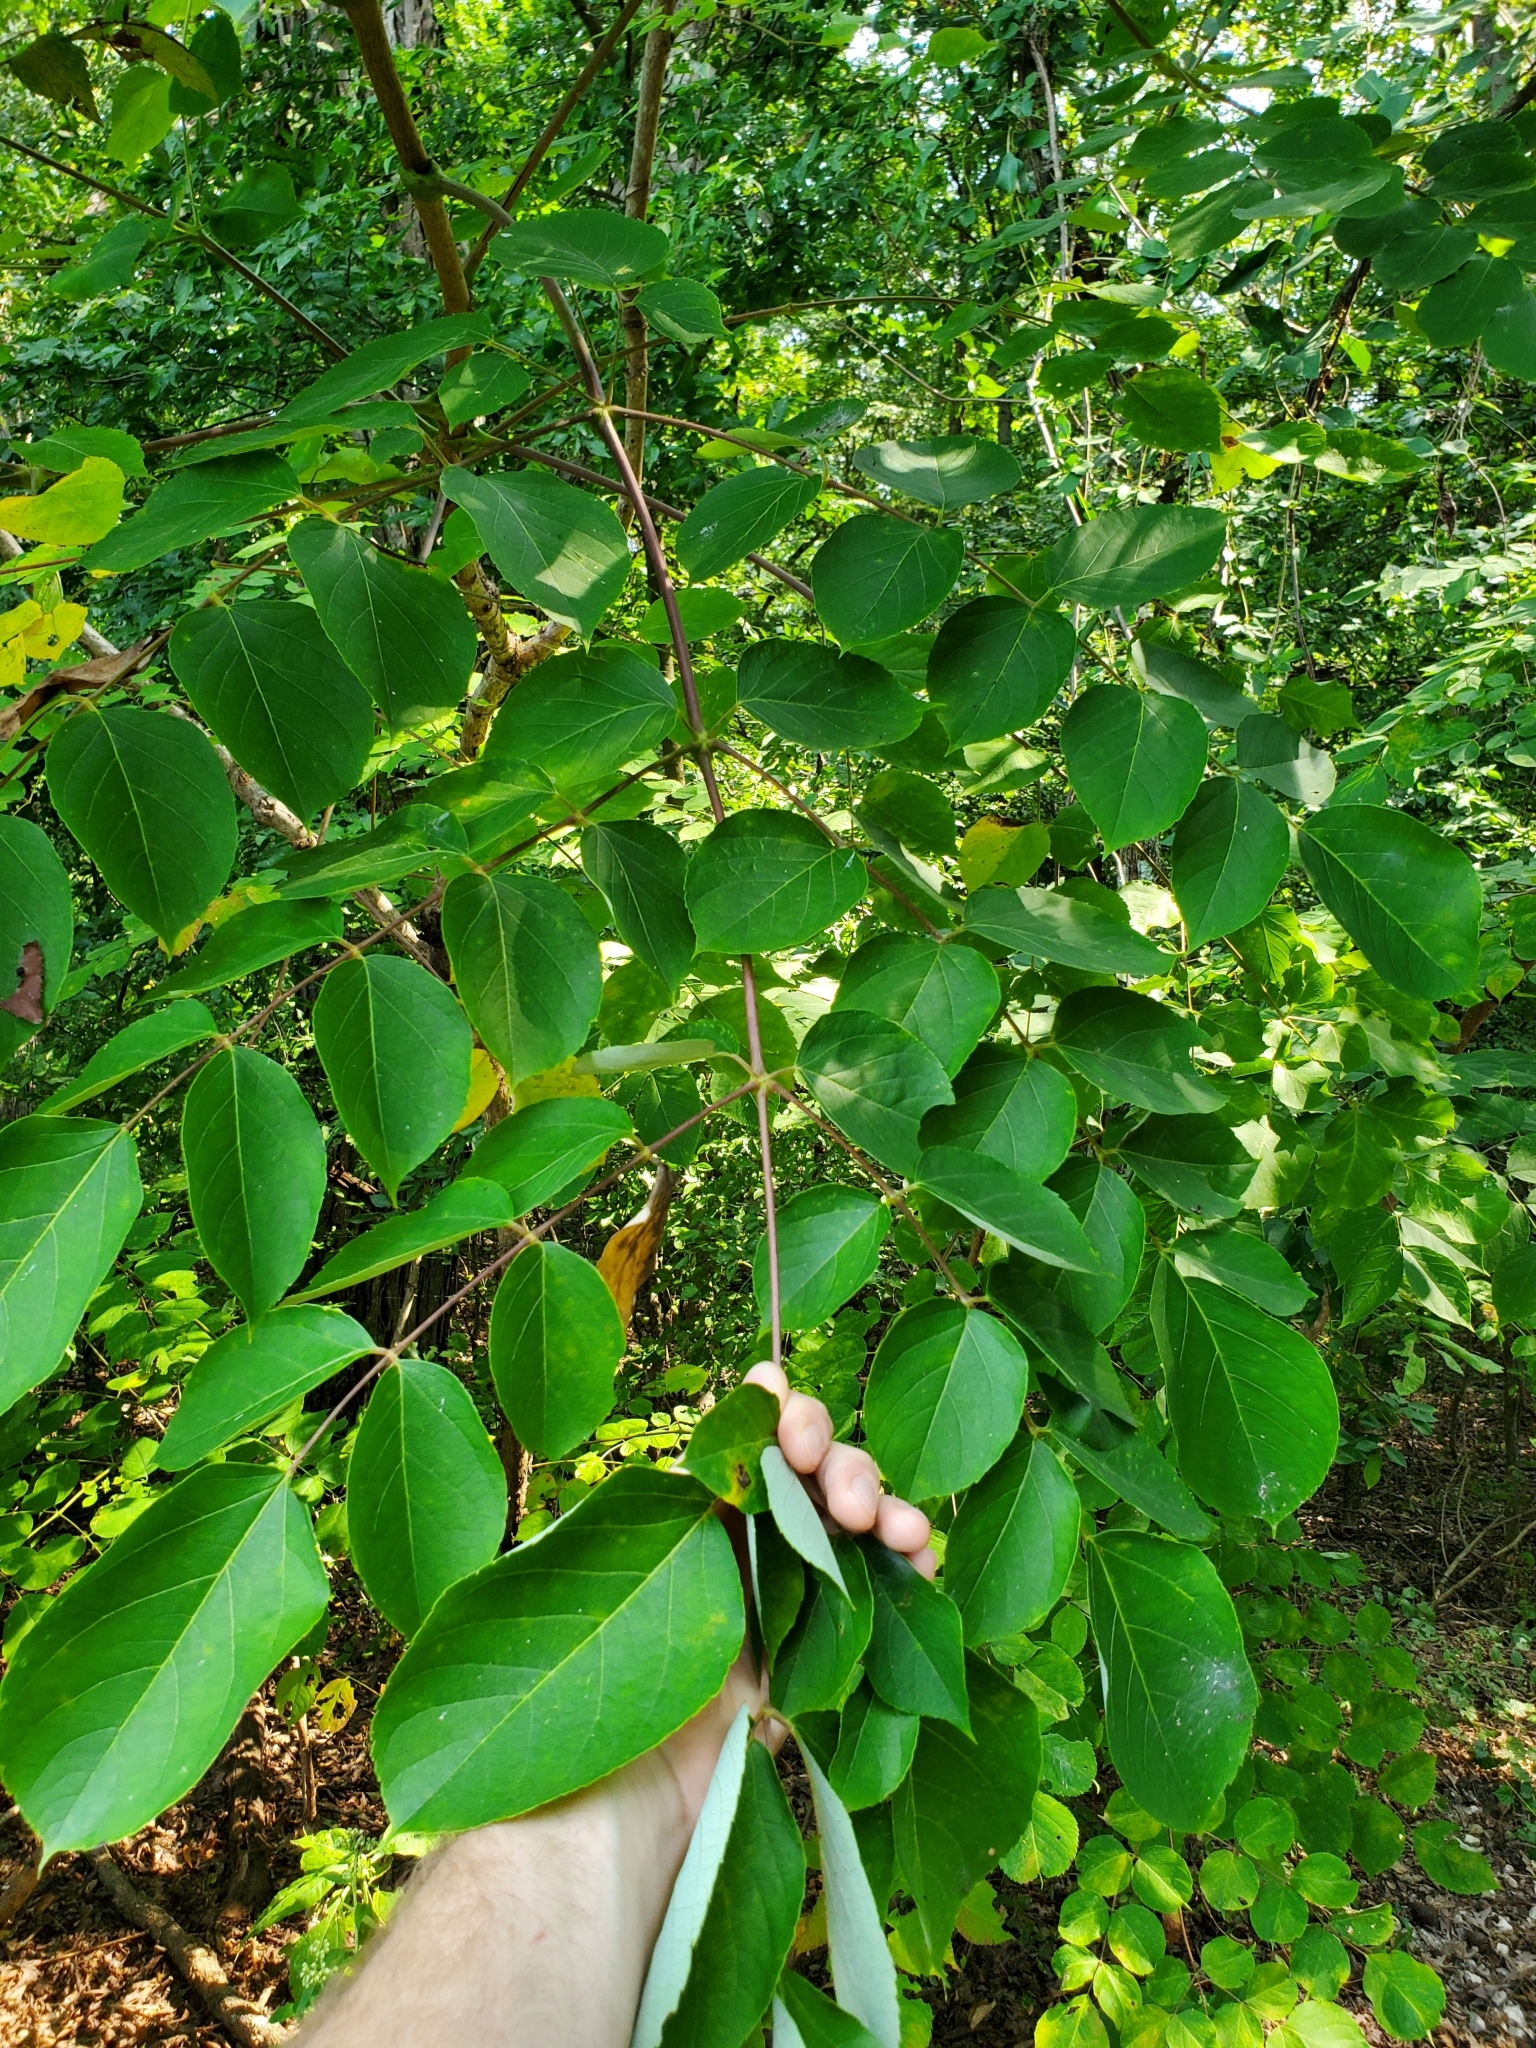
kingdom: Plantae
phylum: Tracheophyta
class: Magnoliopsida
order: Apiales
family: Araliaceae
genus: Aralia
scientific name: Aralia spinosa
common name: Hercules'-club
